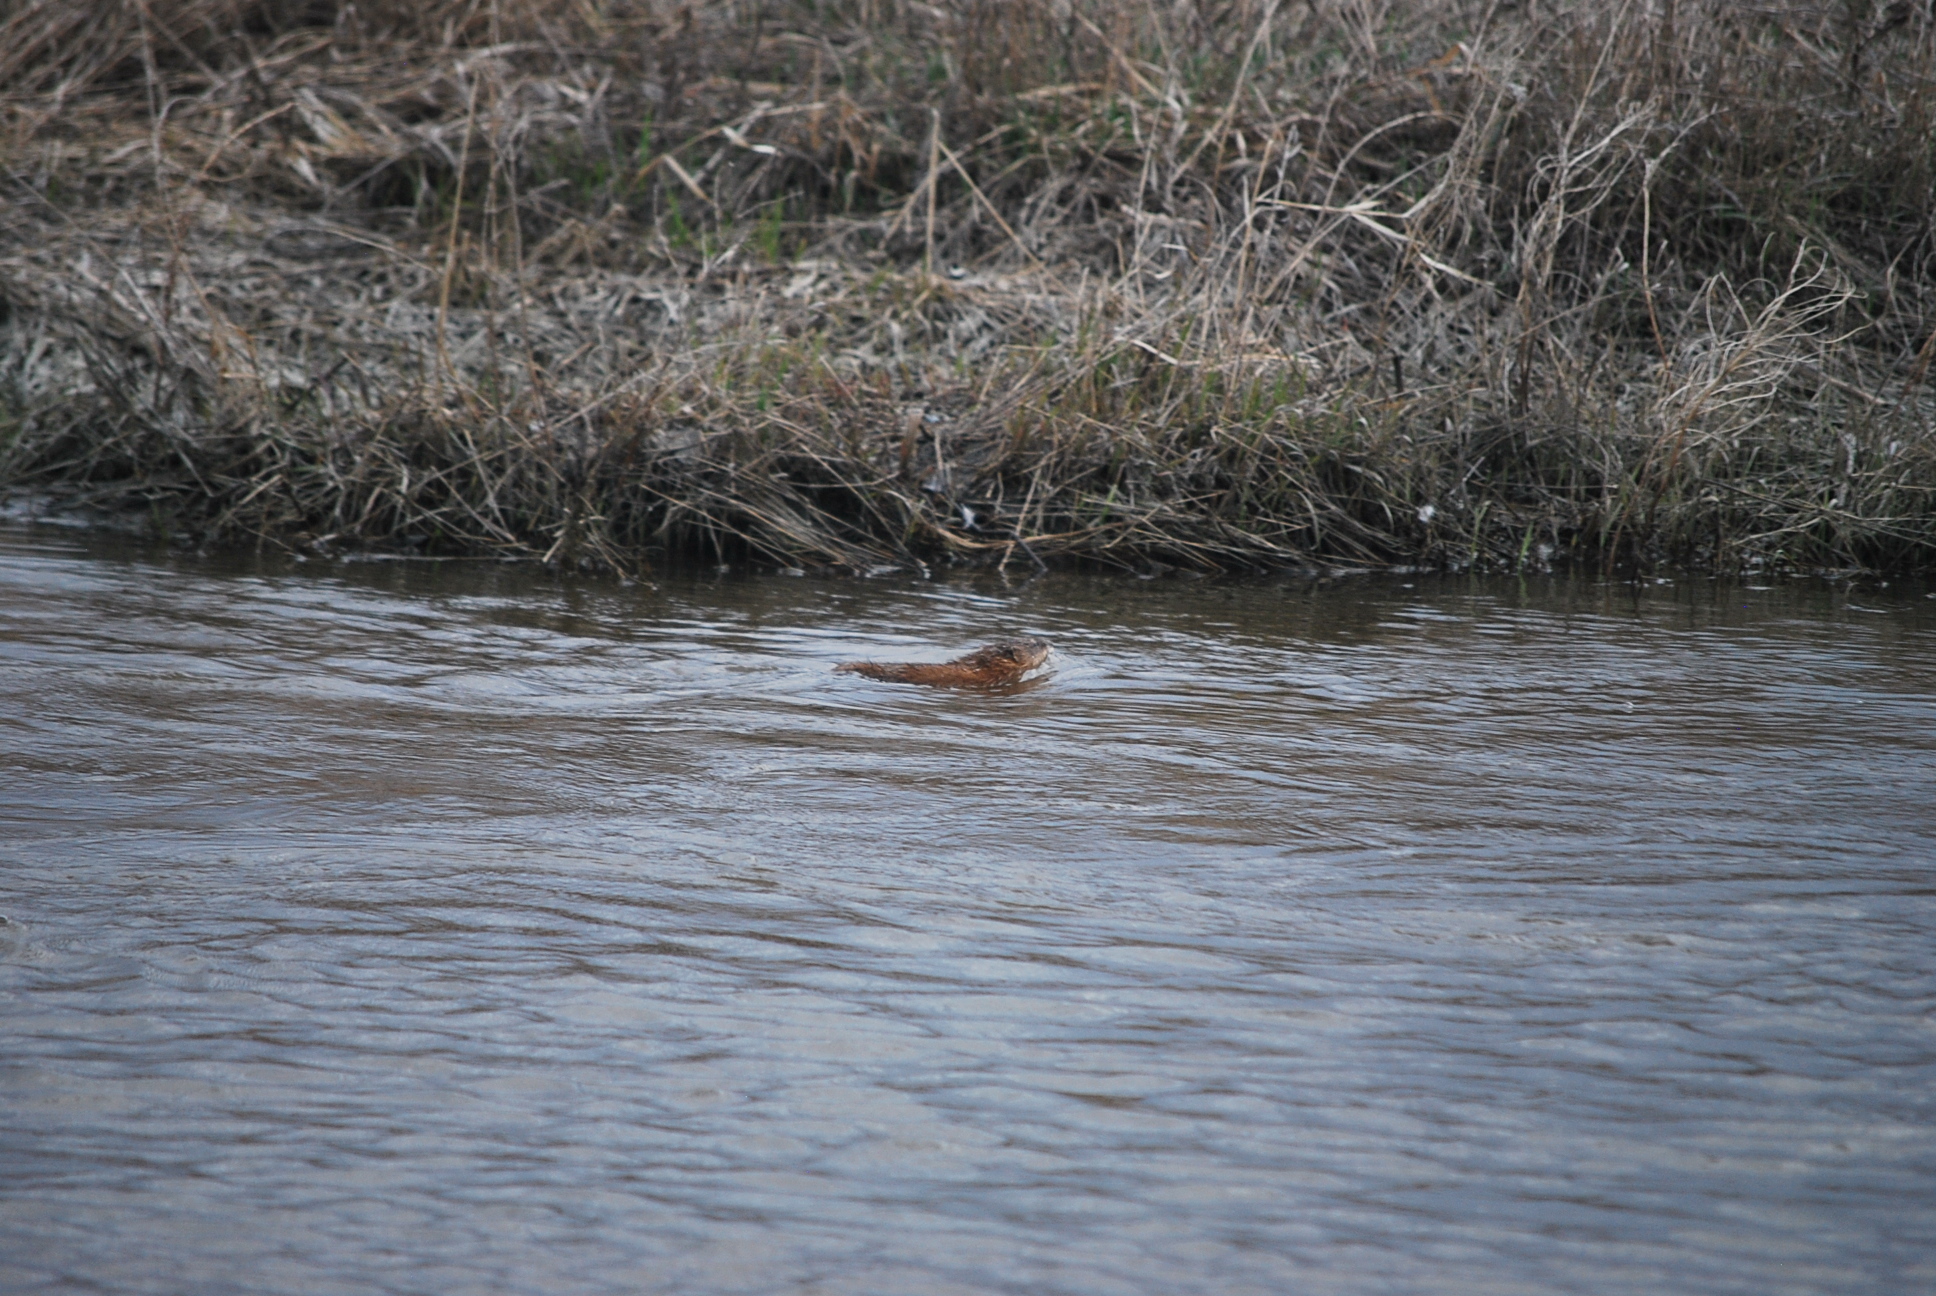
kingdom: Animalia
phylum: Chordata
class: Mammalia
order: Rodentia
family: Cricetidae
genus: Ondatra
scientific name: Ondatra zibethicus
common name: Muskrat
